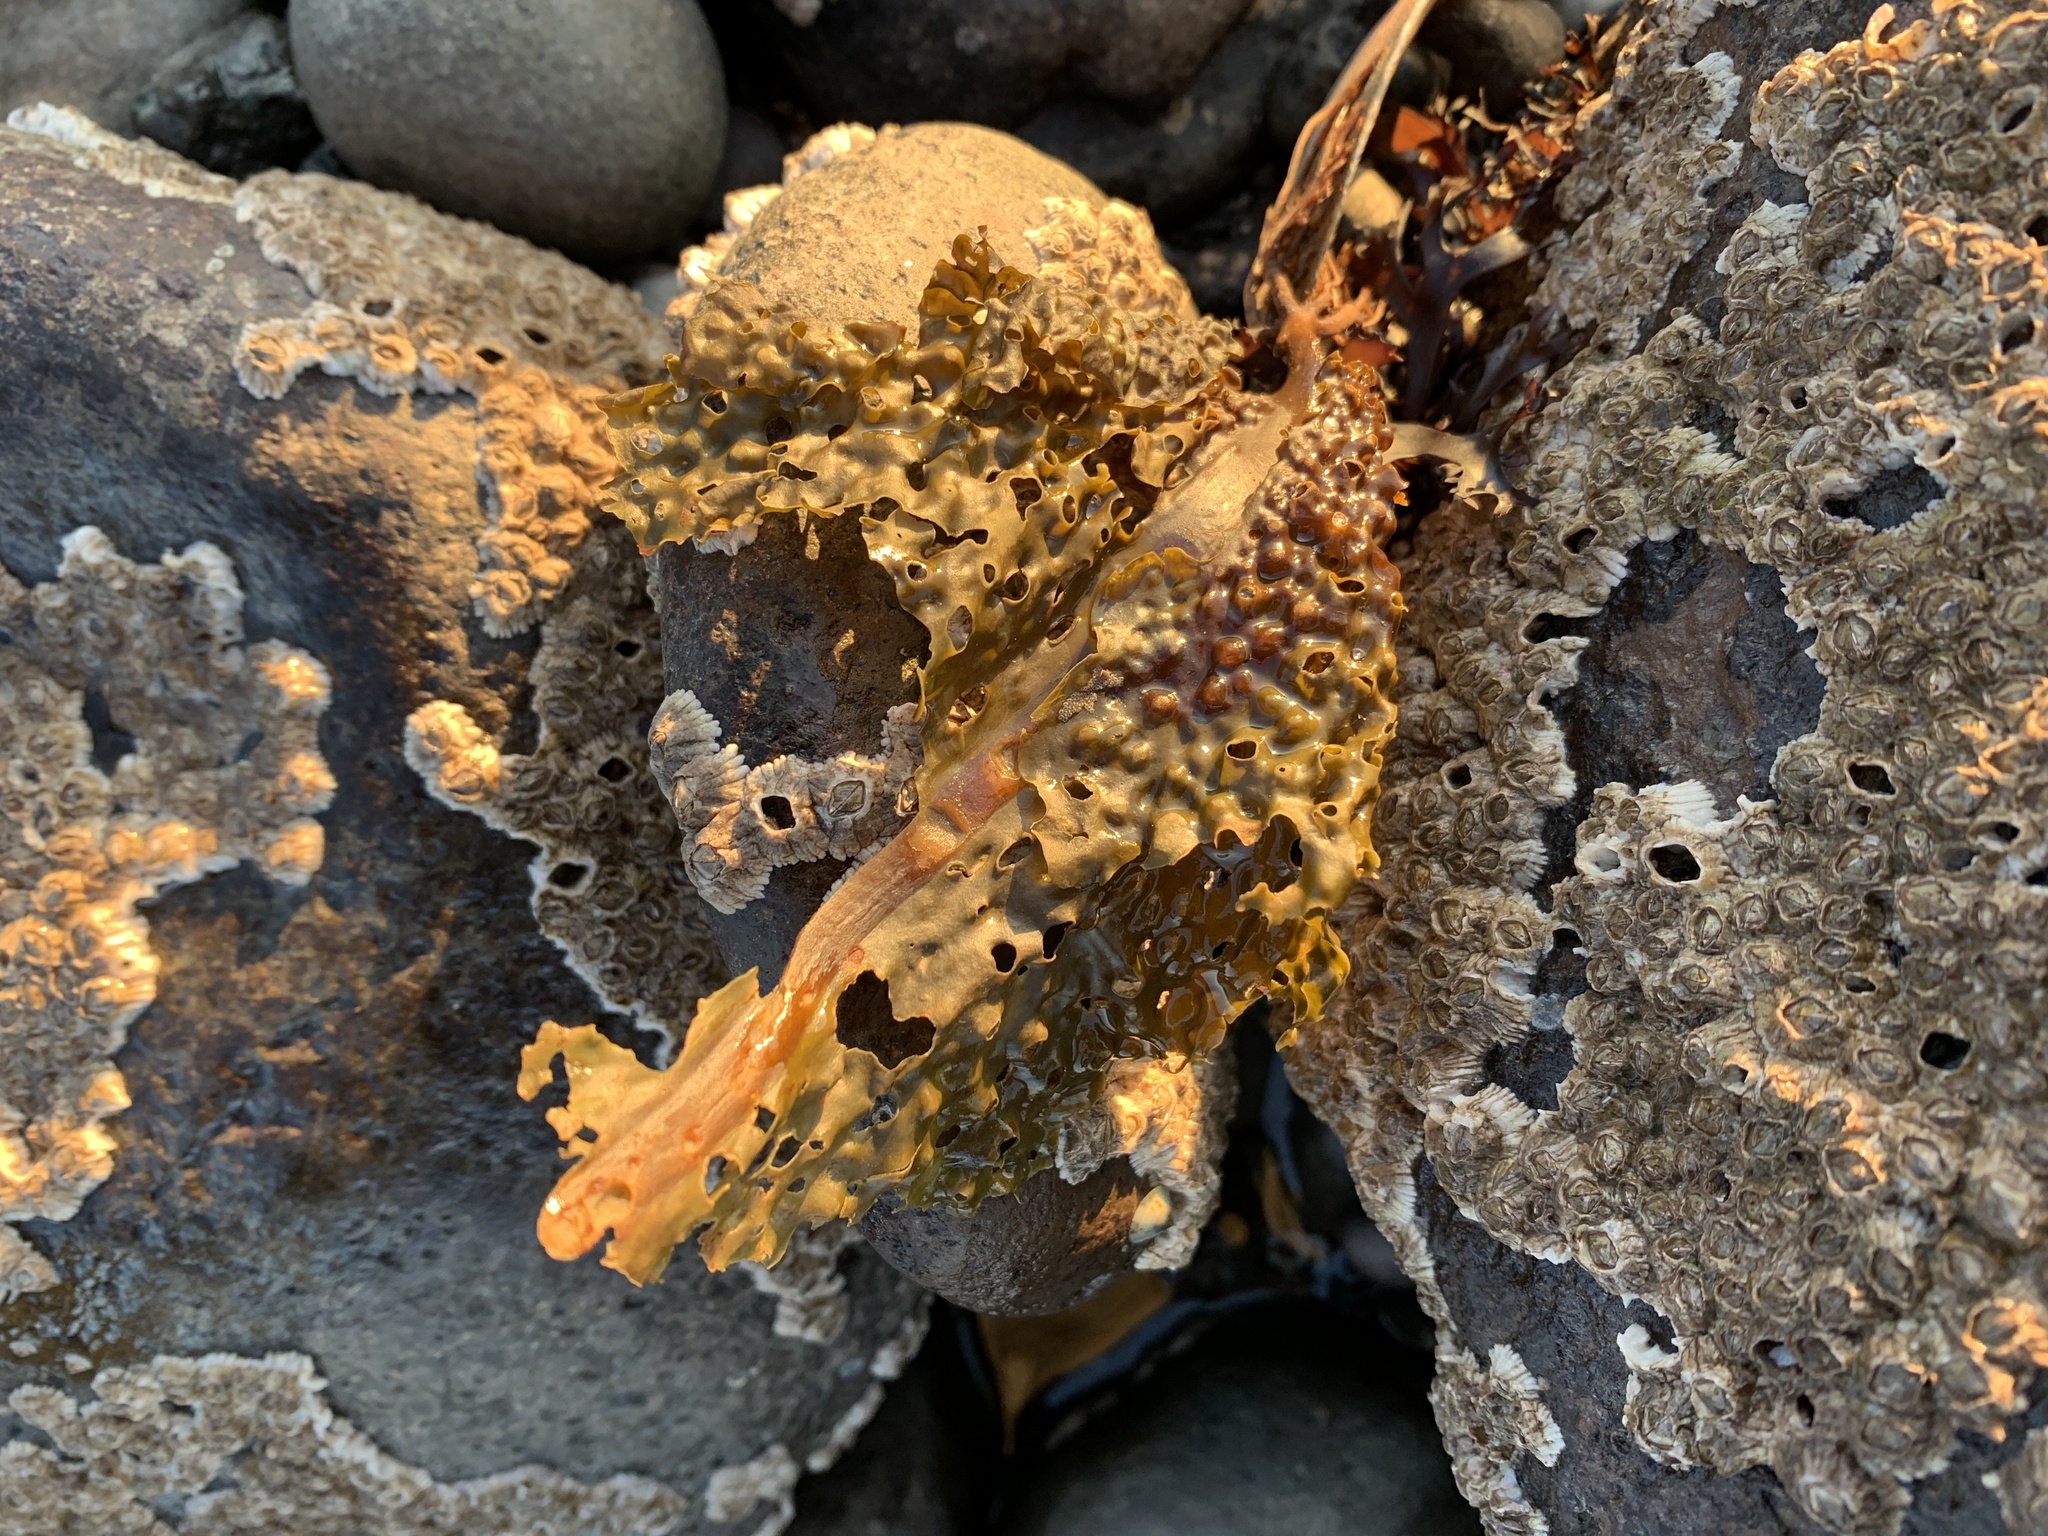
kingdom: Chromista
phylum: Ochrophyta
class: Phaeophyceae
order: Laminariales
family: Costariaceae
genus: Agarum
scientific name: Agarum clathratum
